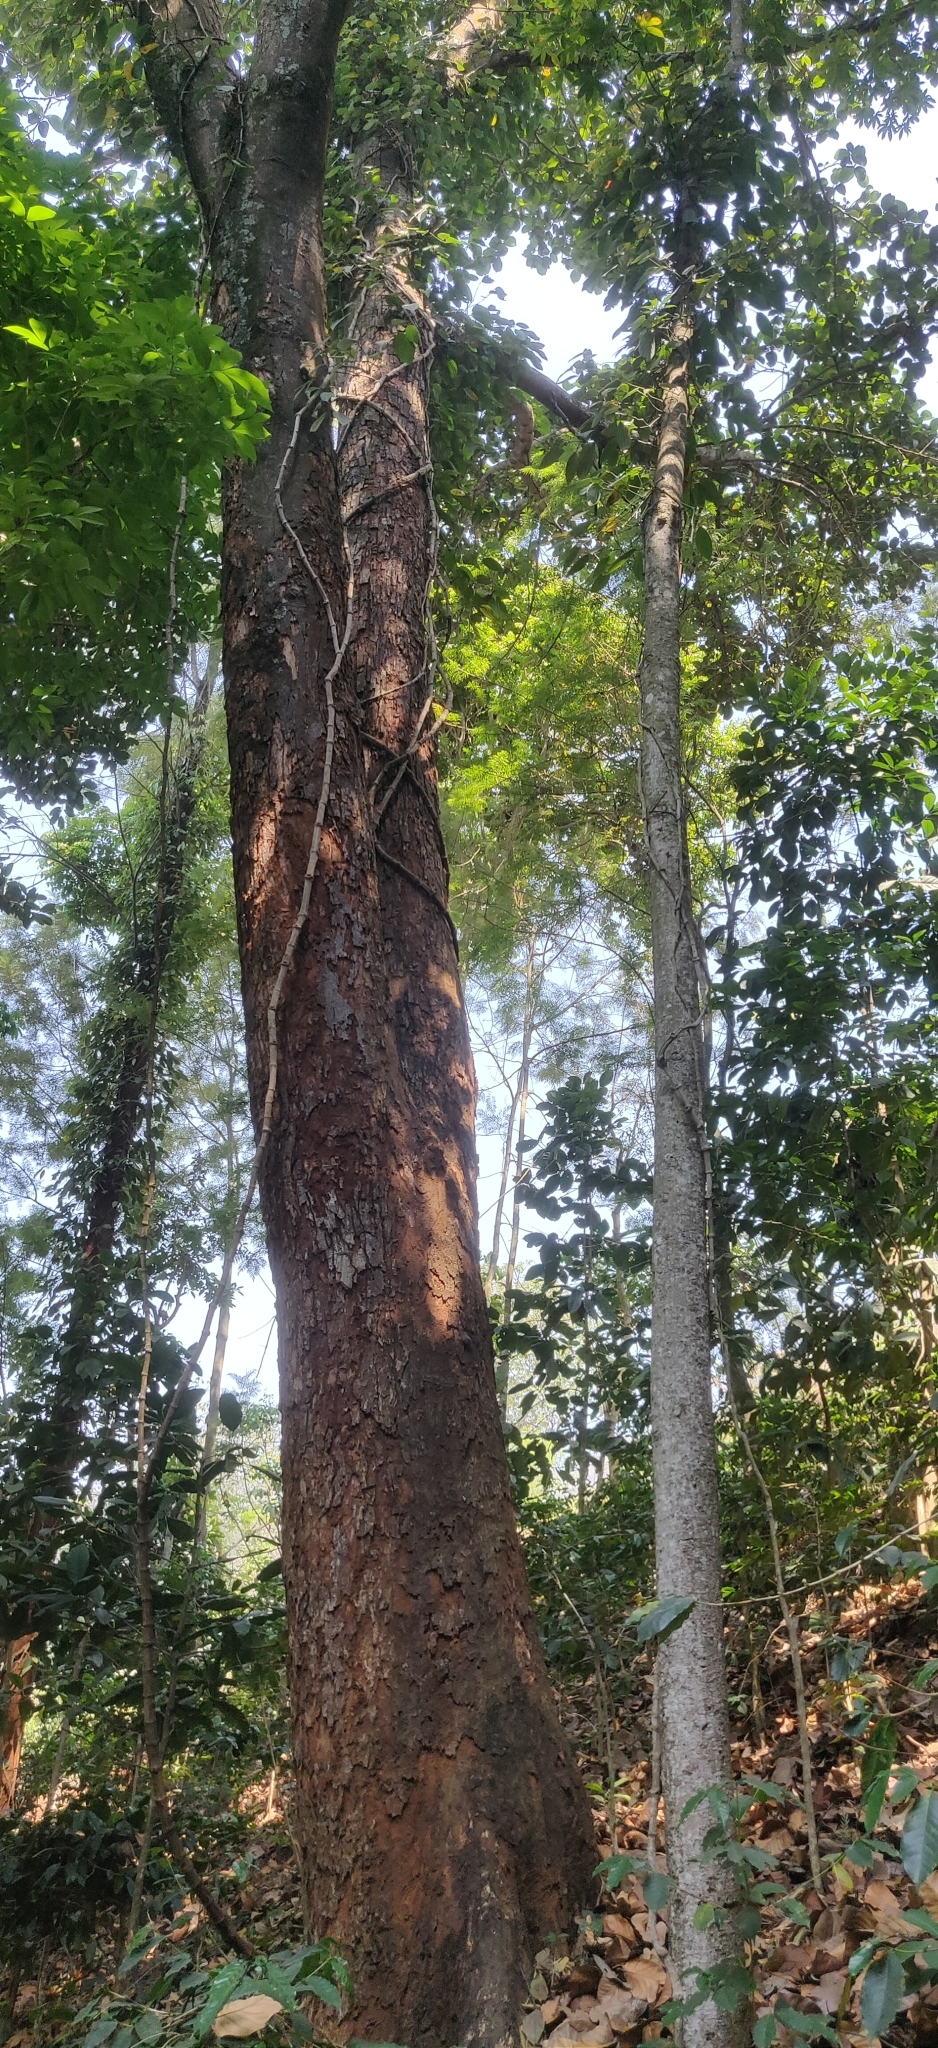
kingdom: Plantae
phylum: Tracheophyta
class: Magnoliopsida
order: Rosales
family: Moraceae
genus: Artocarpus
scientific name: Artocarpus hirsutus
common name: Hairy bread-fruit tree
